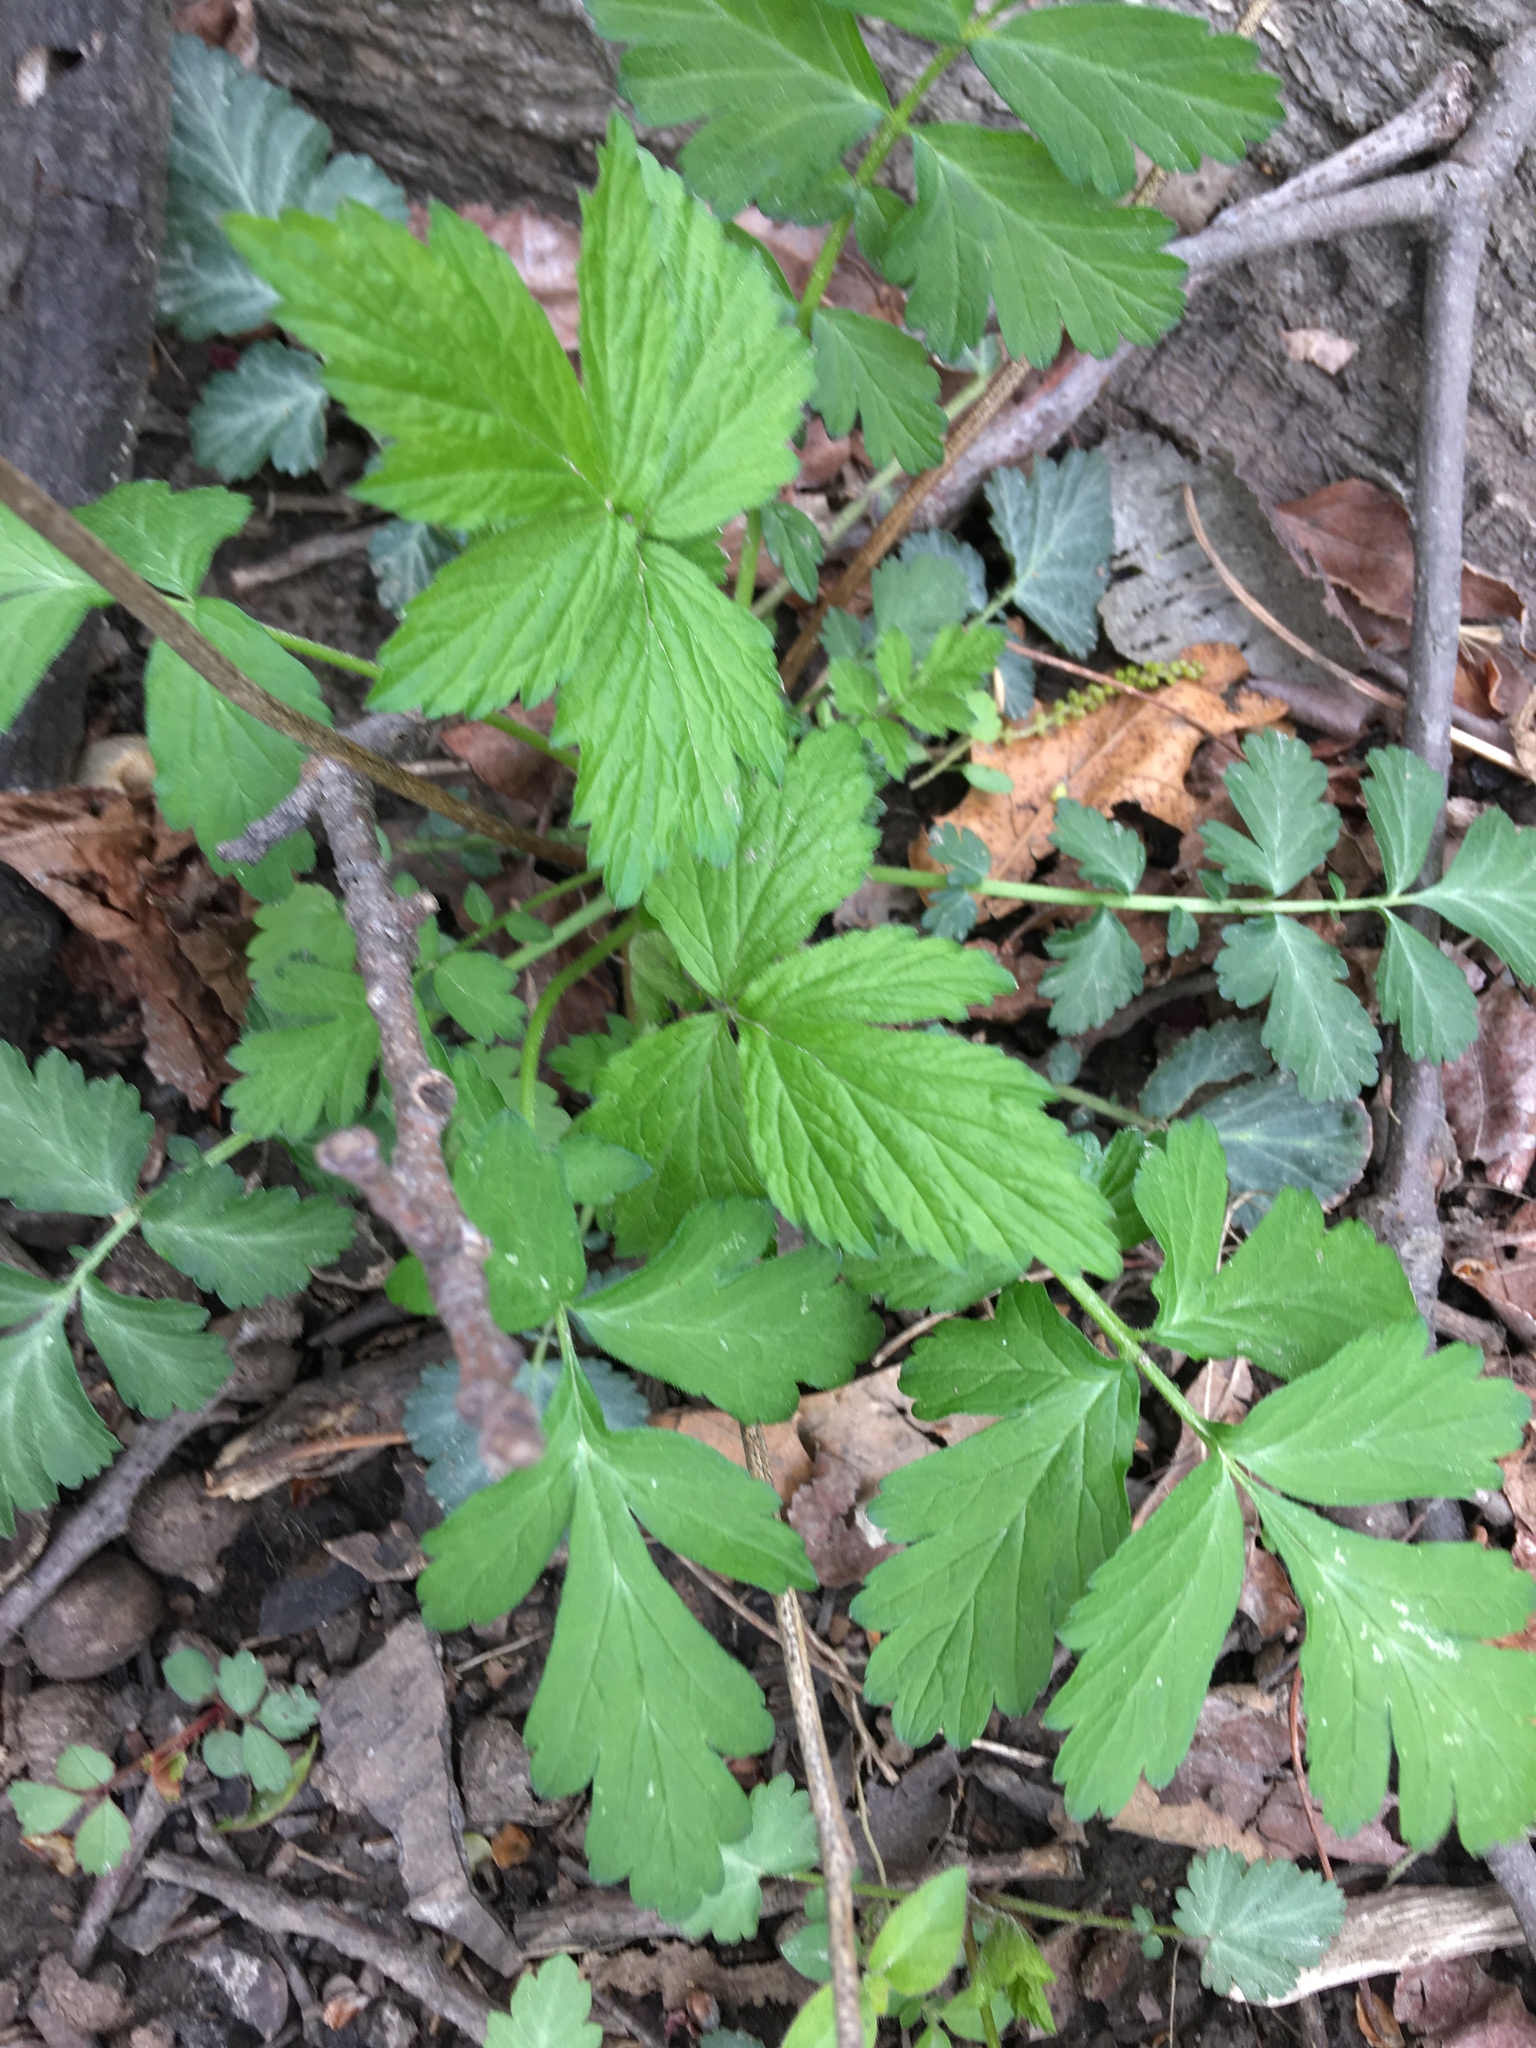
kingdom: Plantae
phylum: Tracheophyta
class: Magnoliopsida
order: Rosales
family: Rosaceae
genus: Geum
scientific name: Geum canadense
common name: White avens
